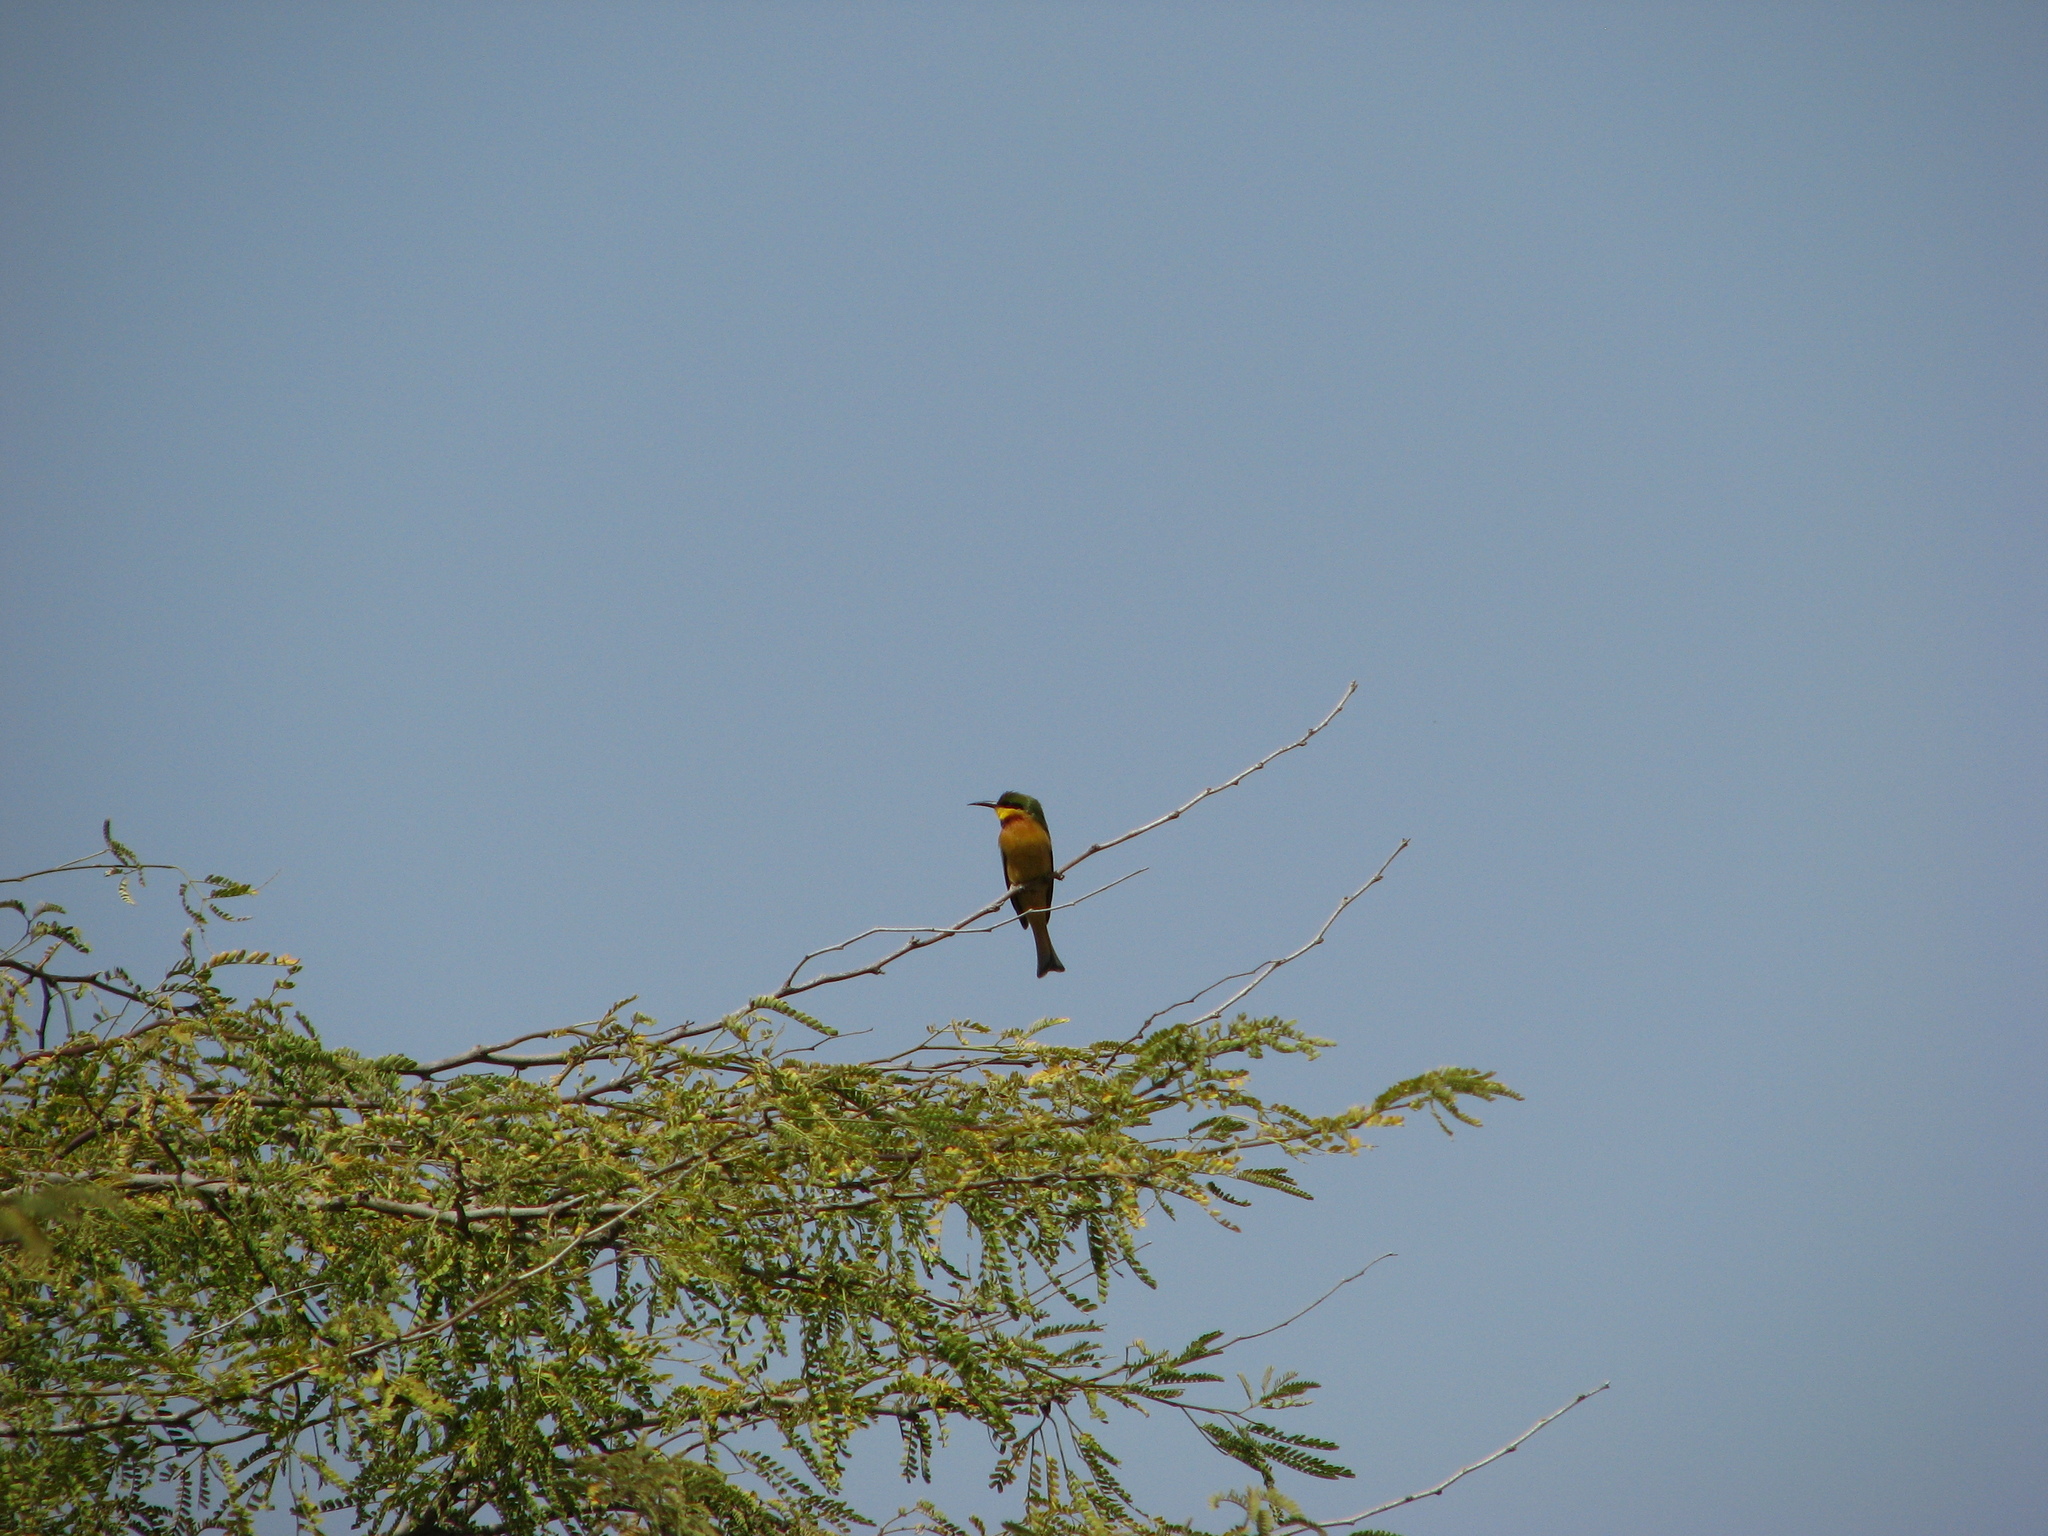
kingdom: Animalia
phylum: Chordata
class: Aves
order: Coraciiformes
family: Meropidae
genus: Merops
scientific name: Merops pusillus
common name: Little bee-eater
